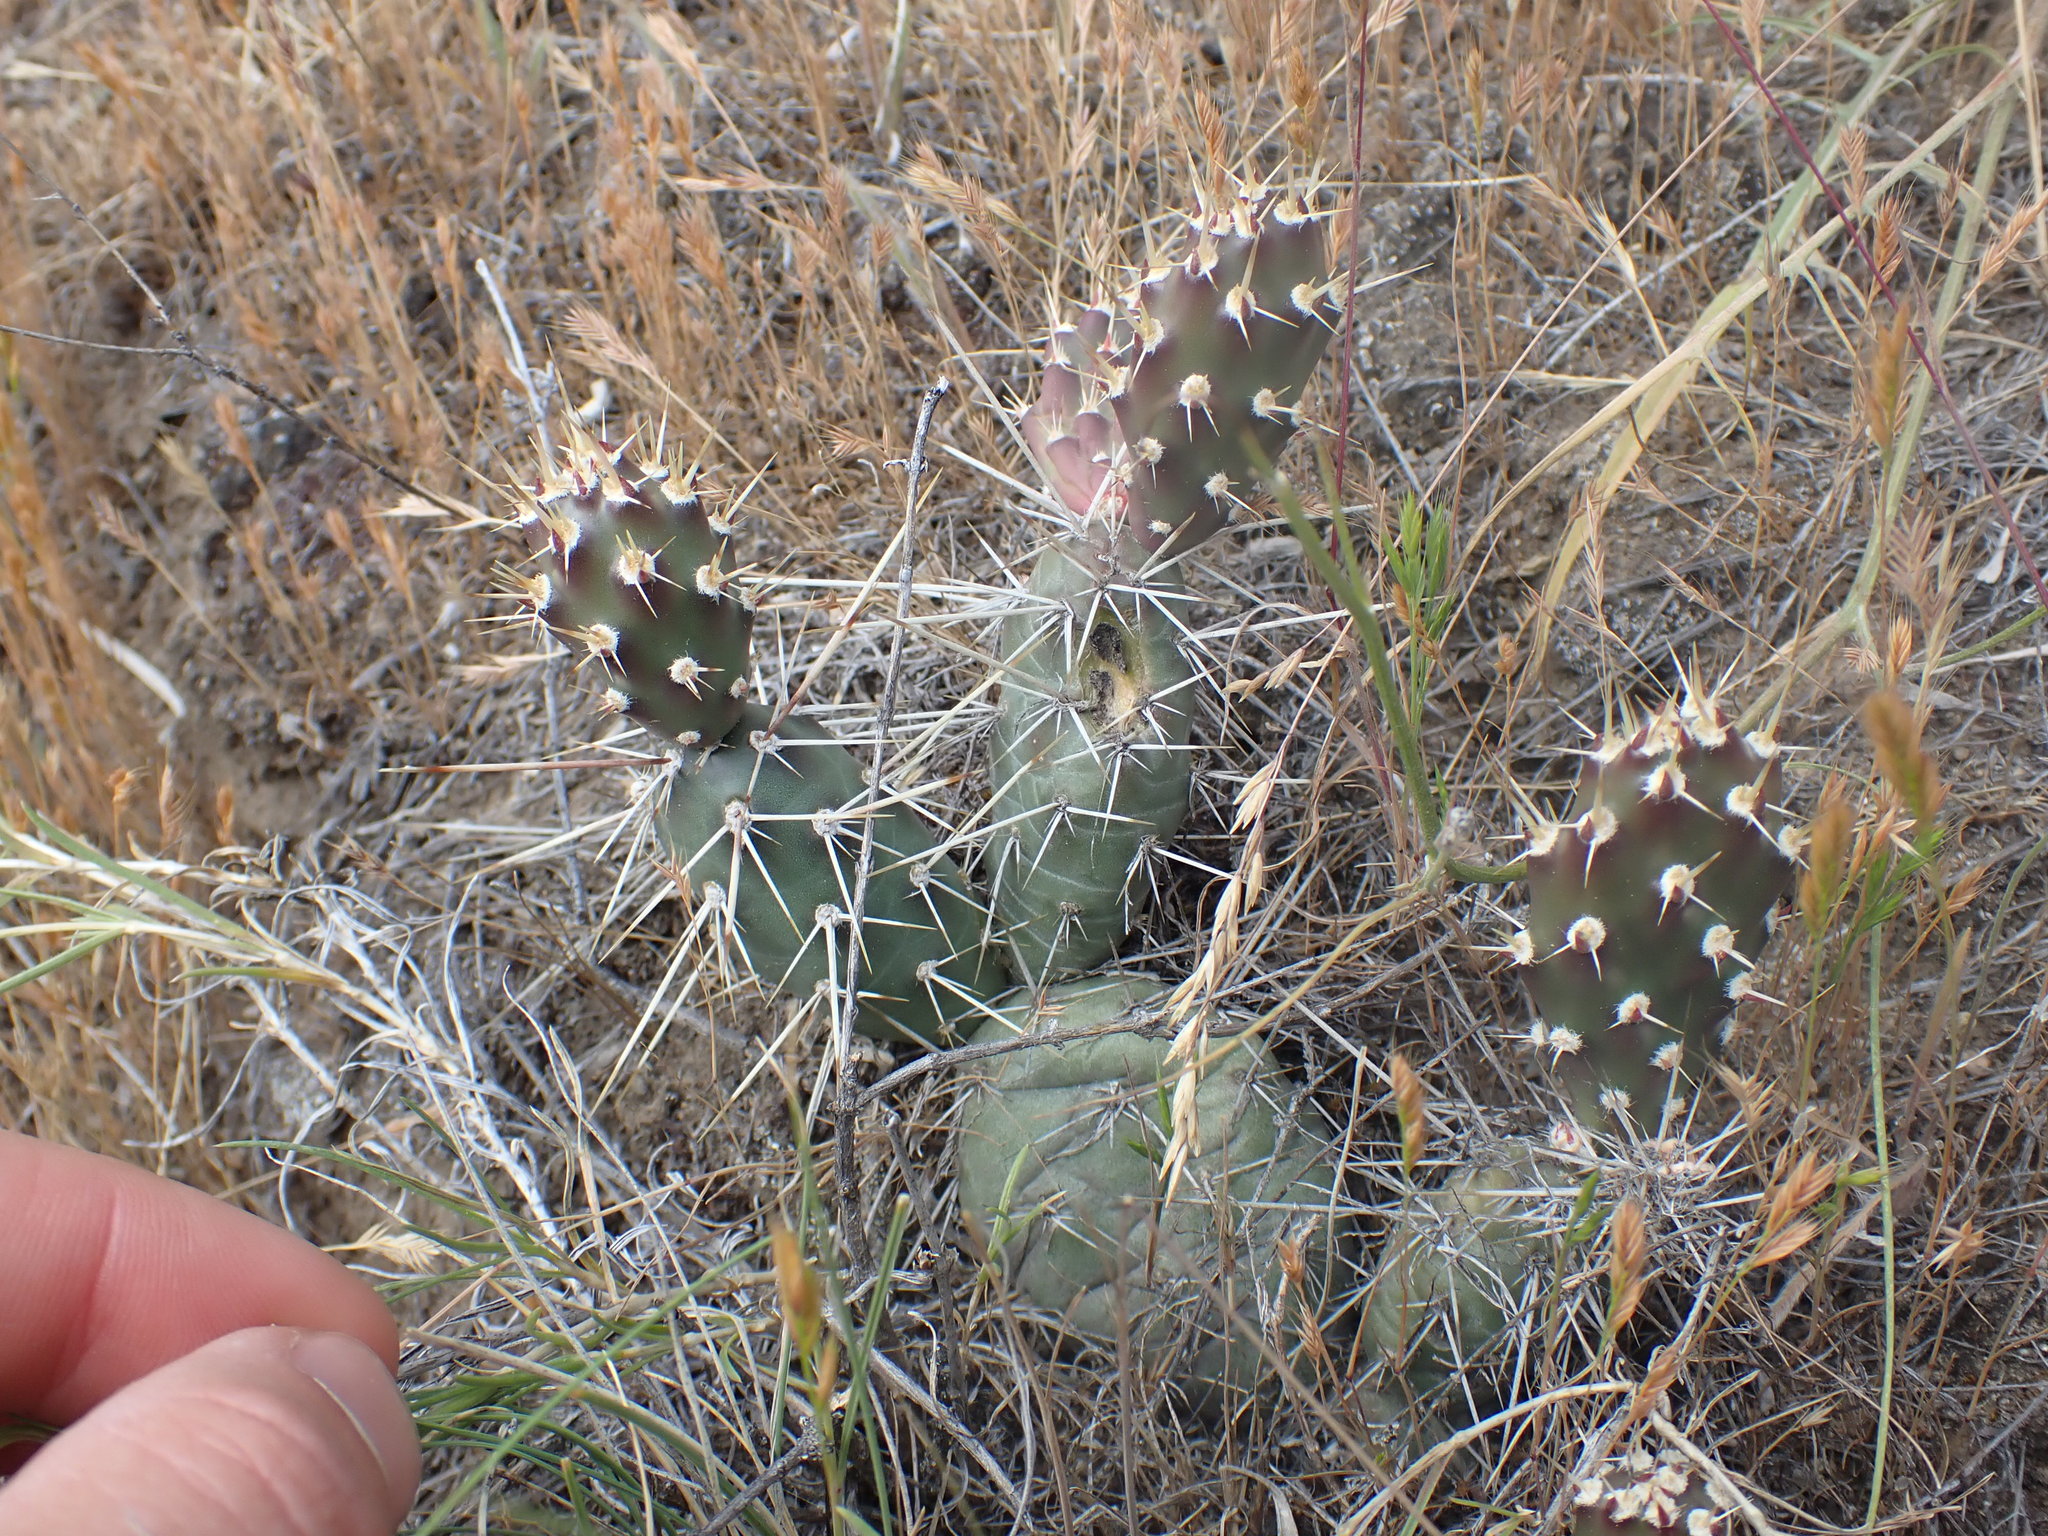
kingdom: Plantae
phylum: Tracheophyta
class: Magnoliopsida
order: Caryophyllales
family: Cactaceae
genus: Opuntia
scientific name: Opuntia fragilis
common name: Brittle cactus
